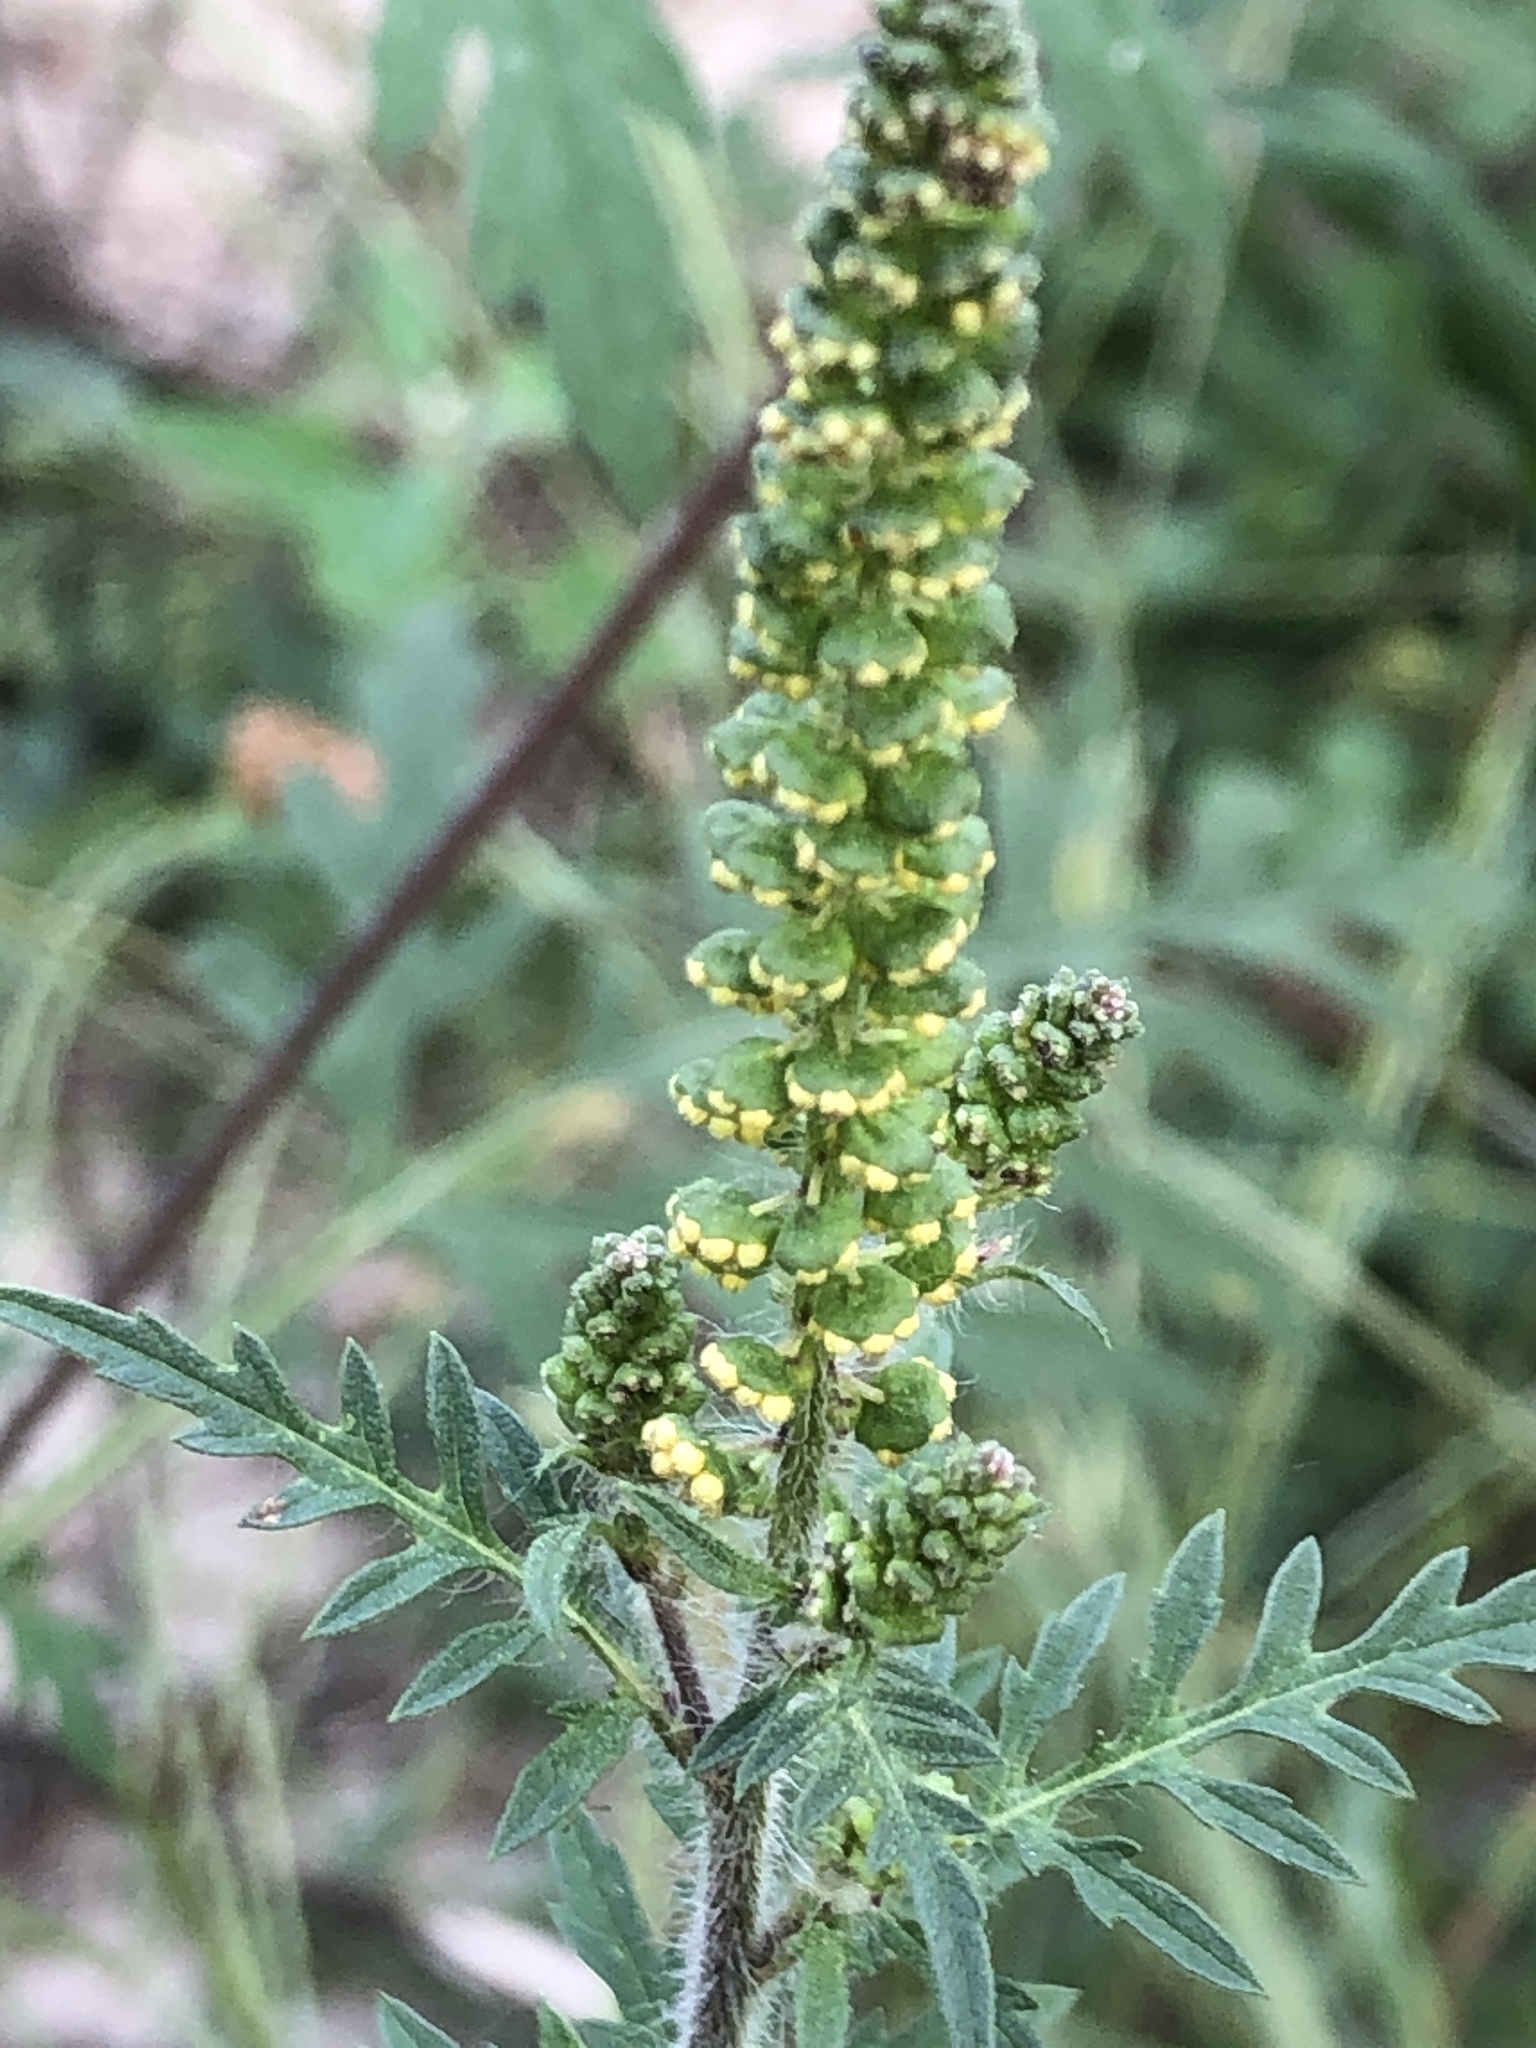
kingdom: Plantae
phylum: Tracheophyta
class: Magnoliopsida
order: Asterales
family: Asteraceae
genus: Ambrosia
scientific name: Ambrosia artemisiifolia
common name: Annual ragweed
